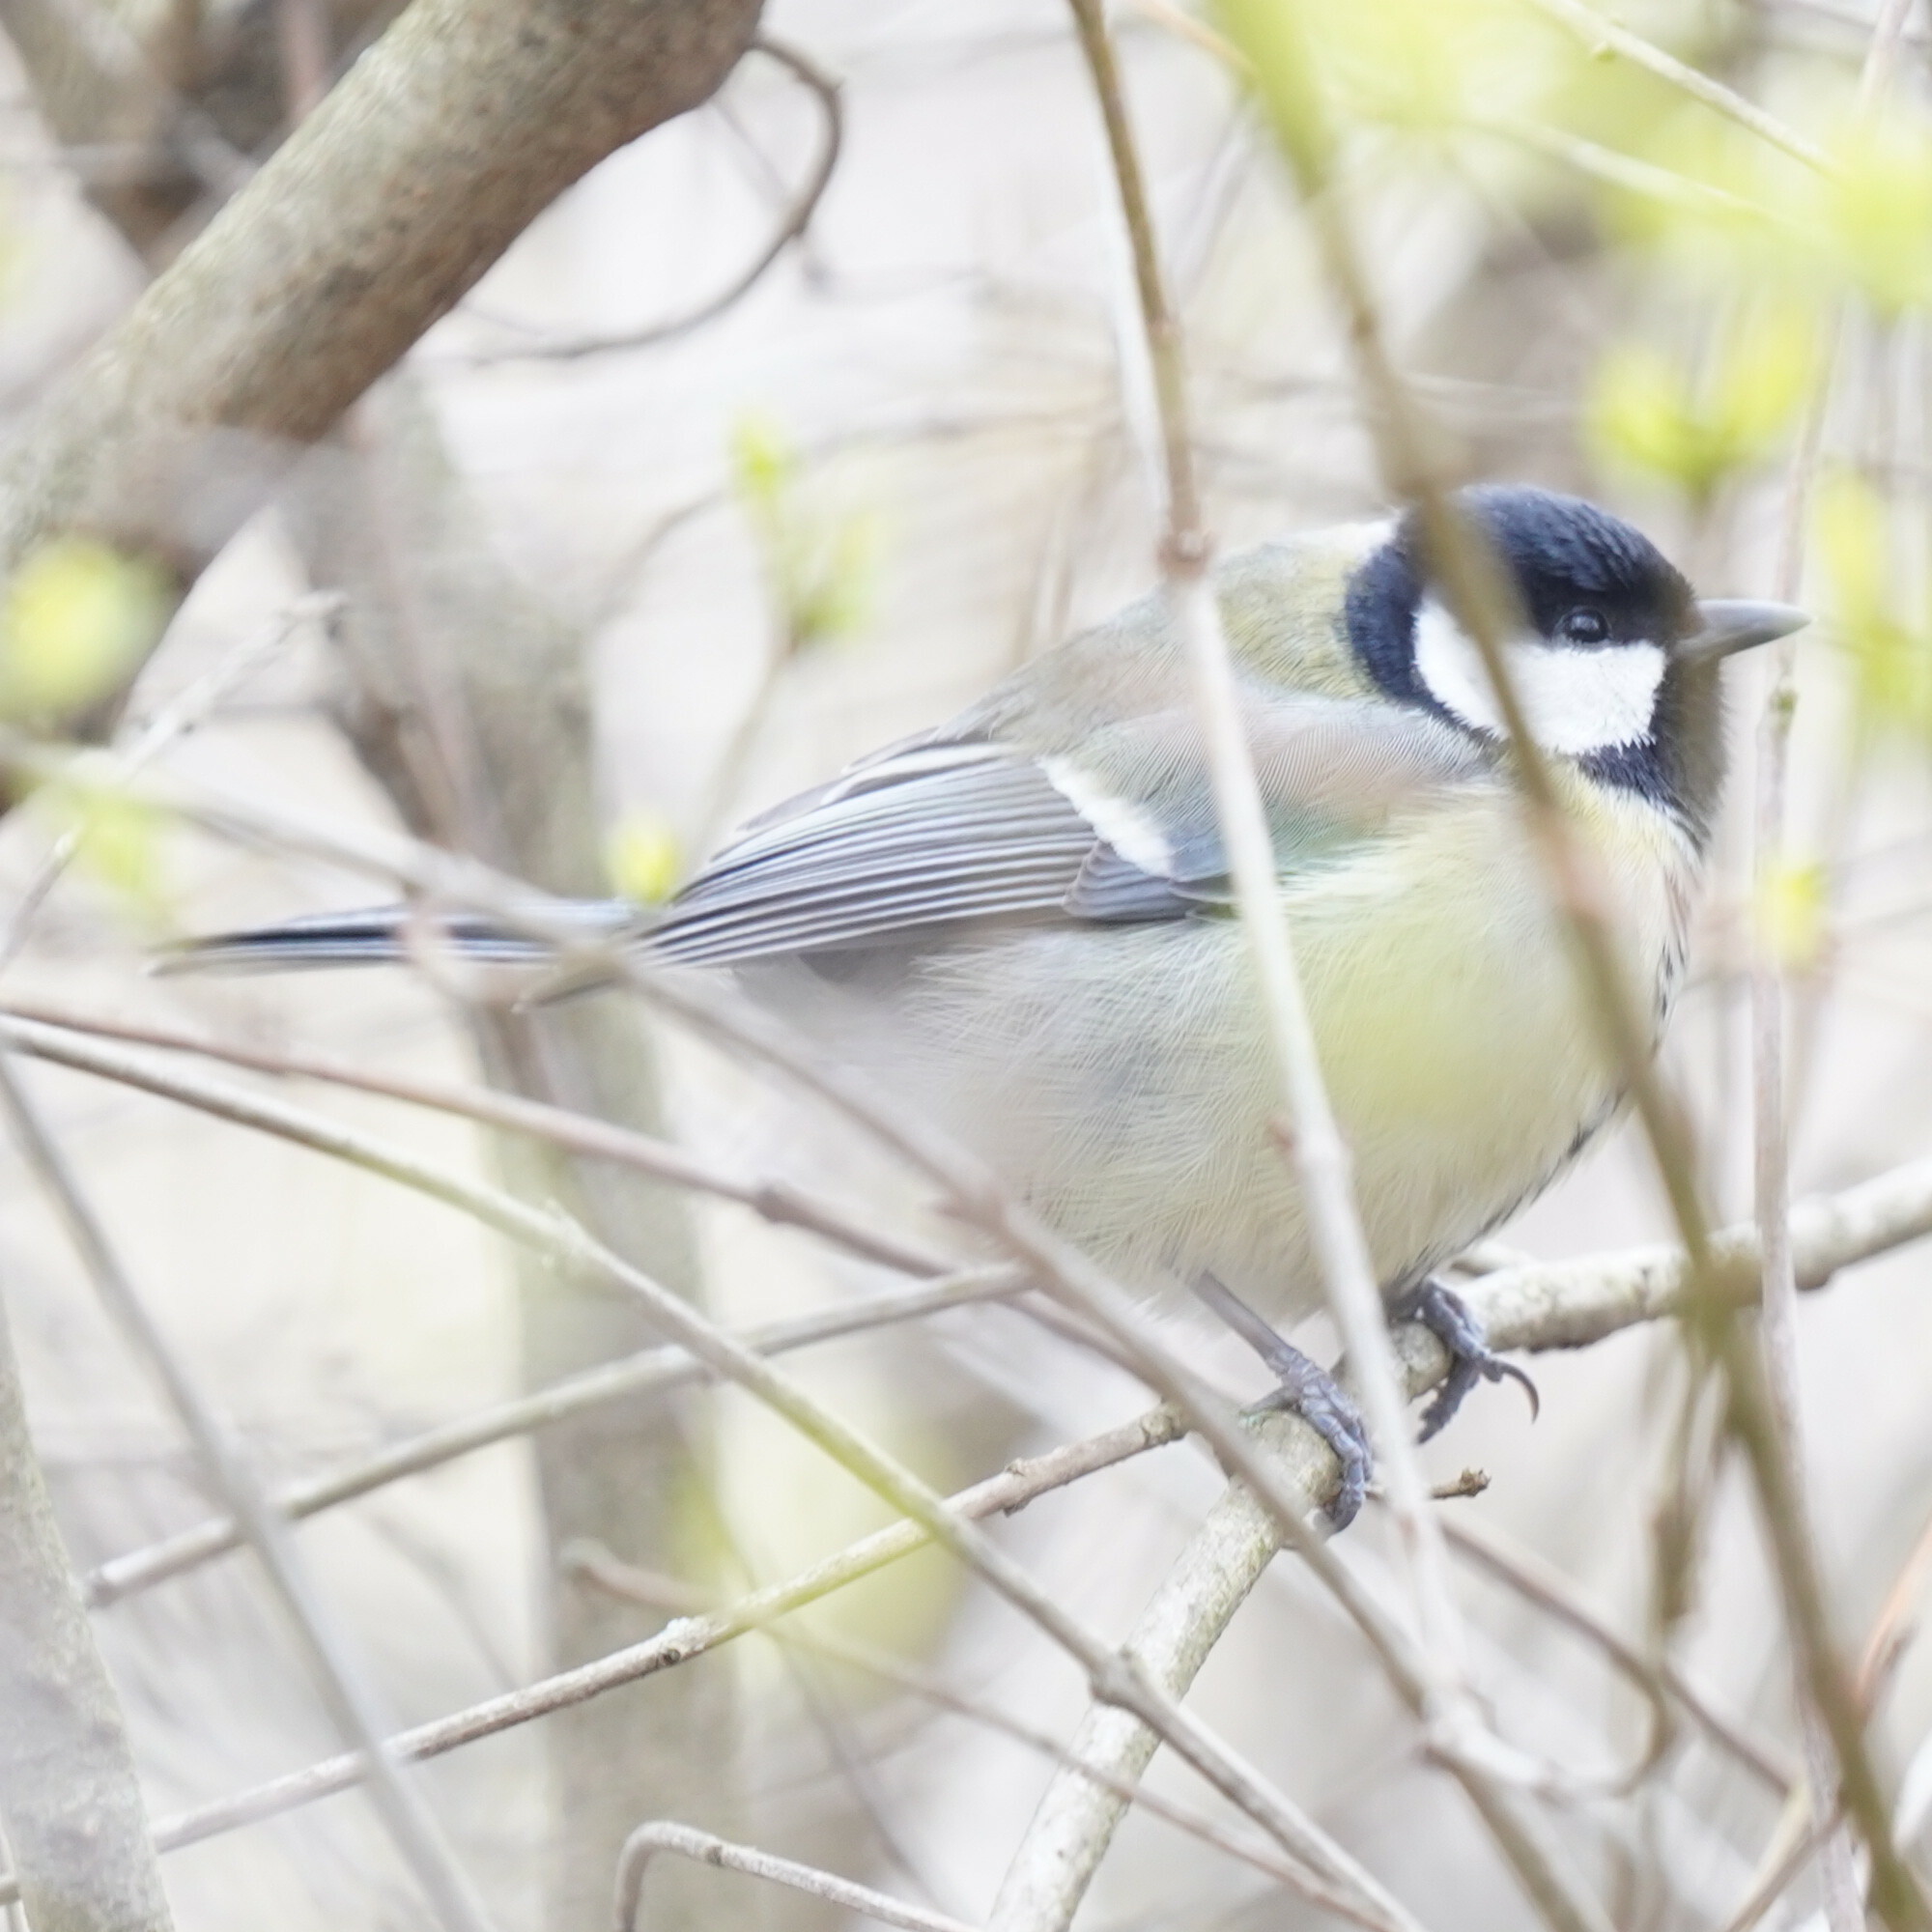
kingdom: Animalia
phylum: Chordata
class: Aves
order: Passeriformes
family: Paridae
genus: Parus
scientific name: Parus major
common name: Great tit
